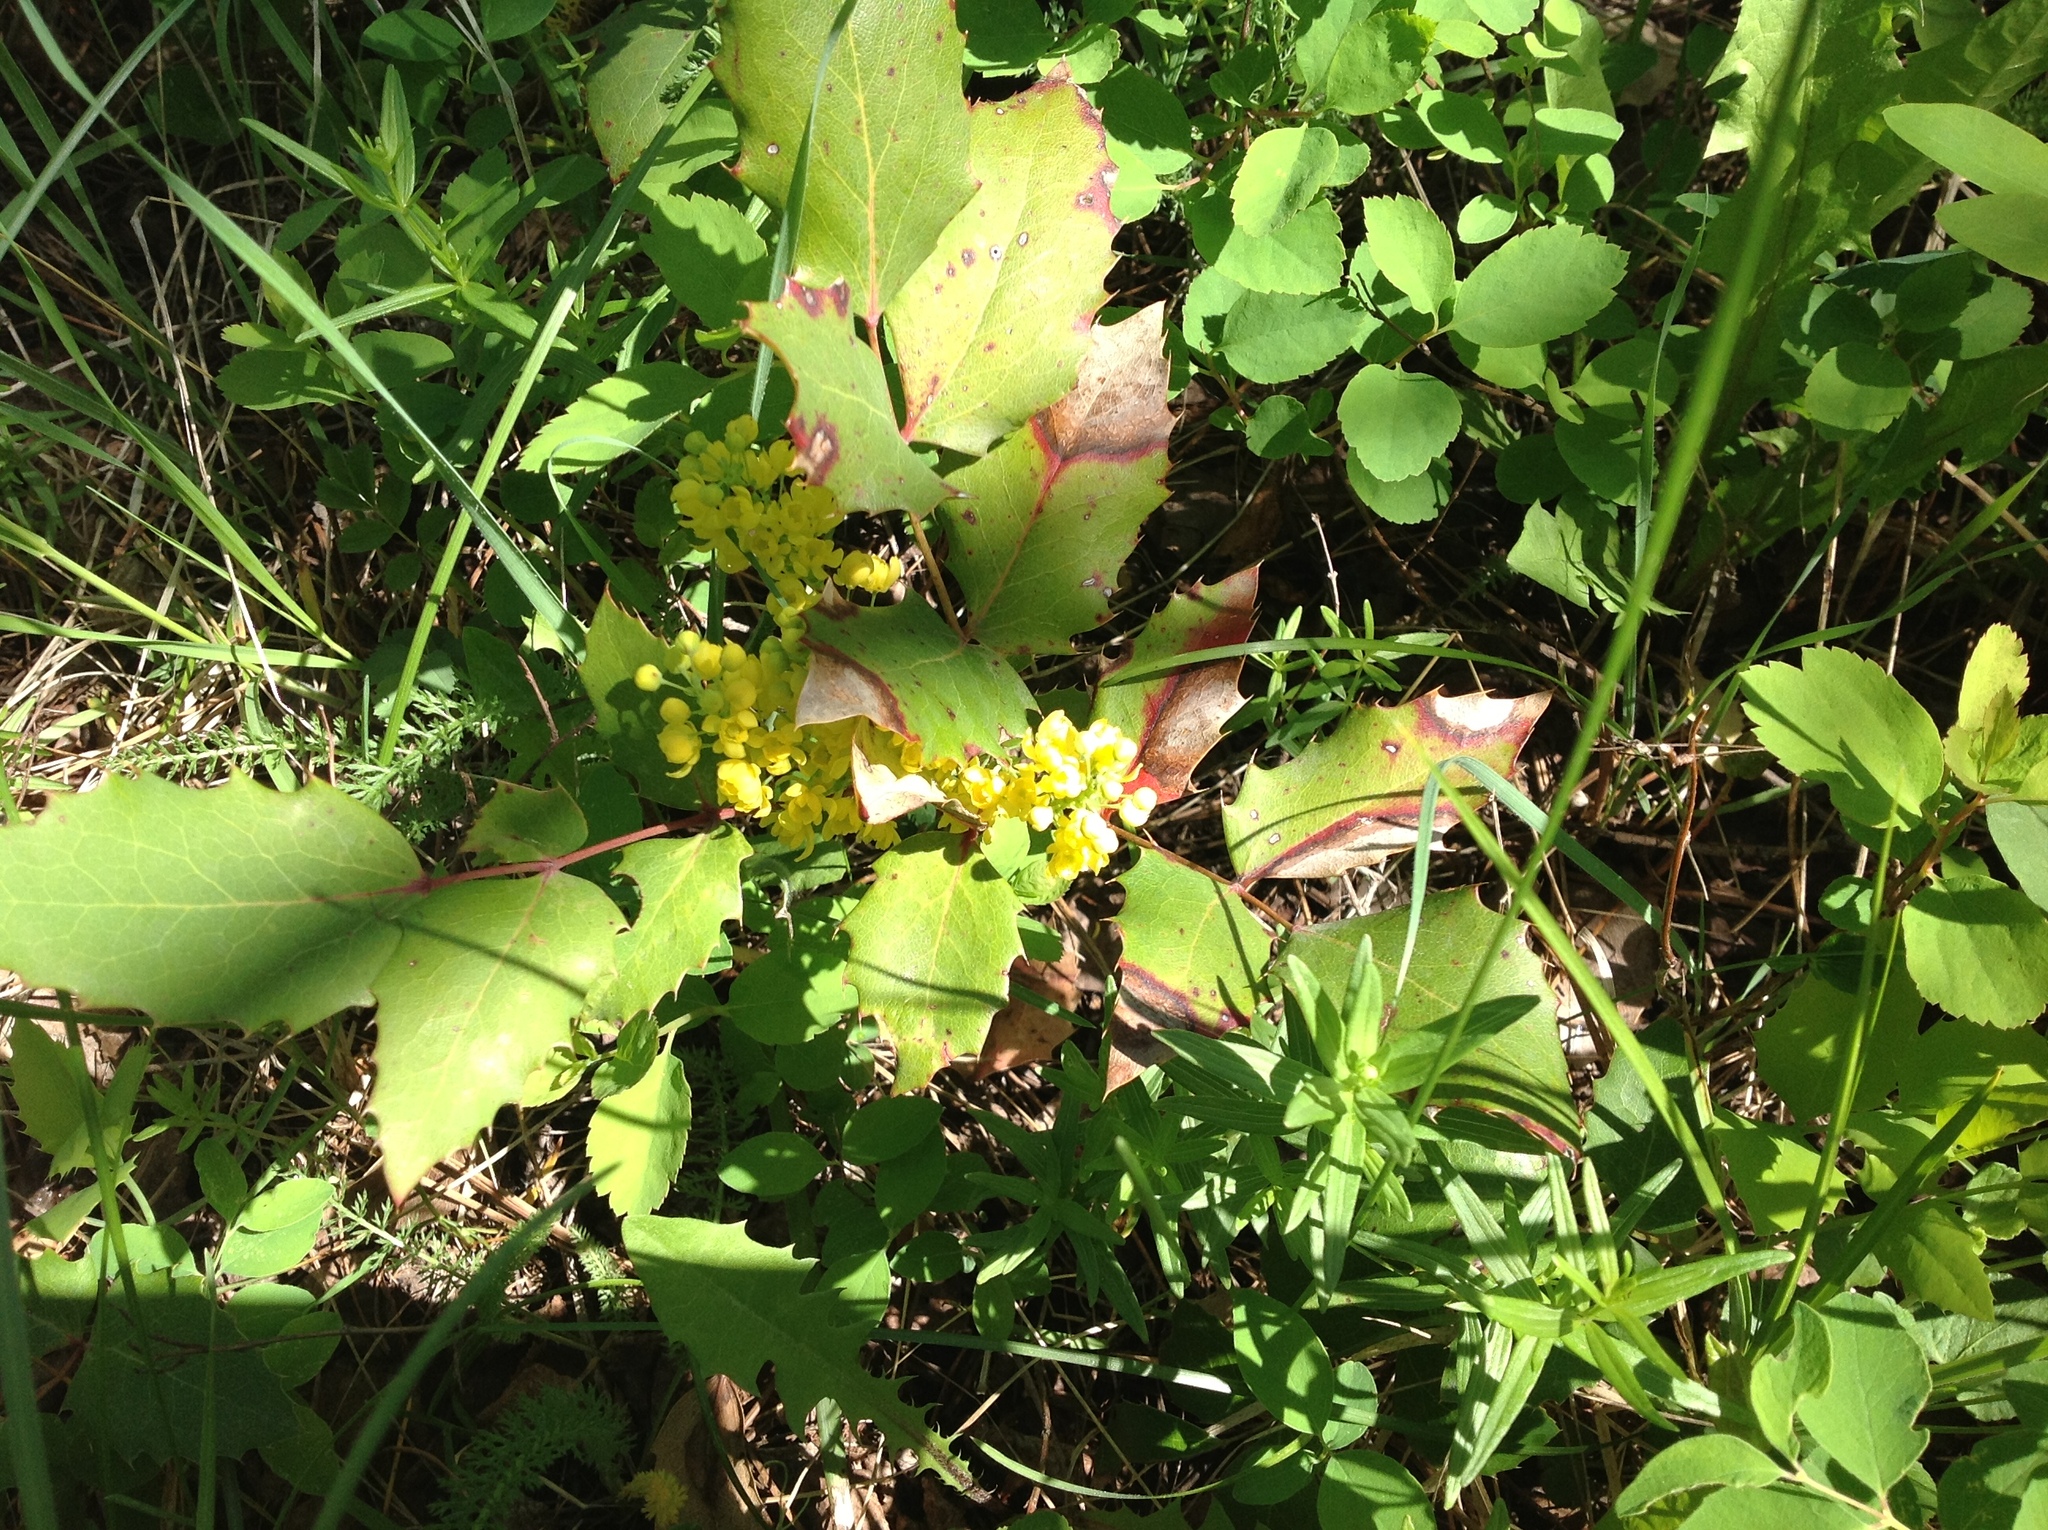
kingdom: Plantae
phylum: Tracheophyta
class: Magnoliopsida
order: Ranunculales
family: Berberidaceae
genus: Mahonia
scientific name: Mahonia repens
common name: Creeping oregon-grape
